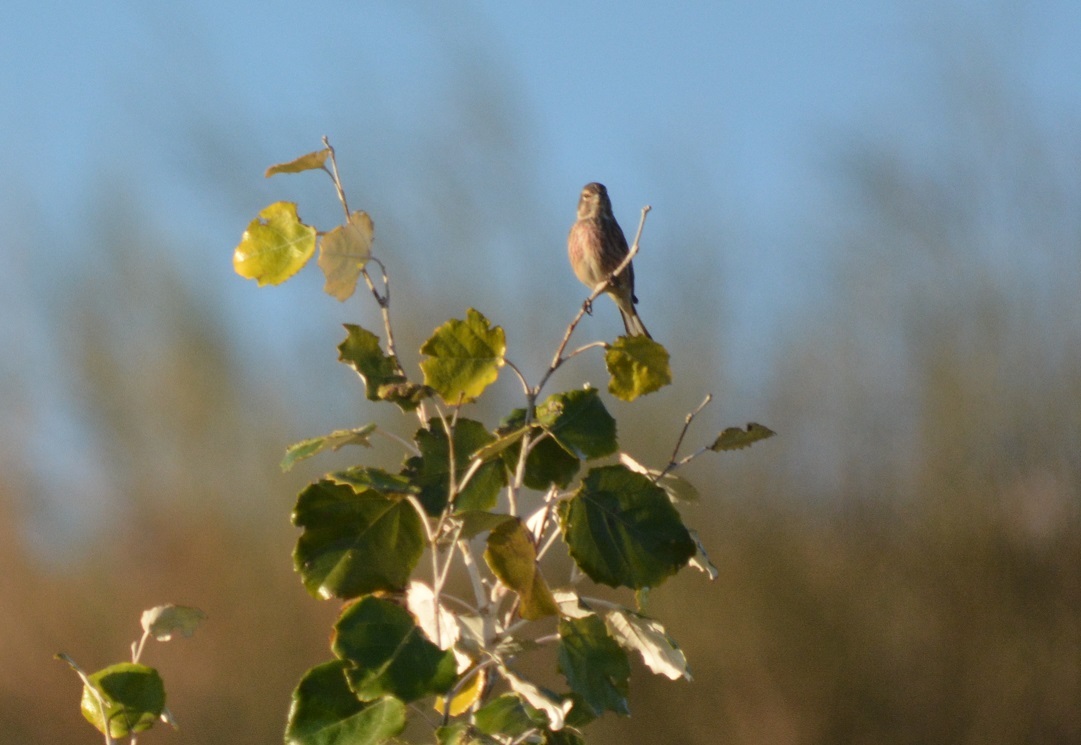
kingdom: Animalia
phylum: Chordata
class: Aves
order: Passeriformes
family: Fringillidae
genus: Linaria
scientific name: Linaria cannabina
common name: Common linnet
